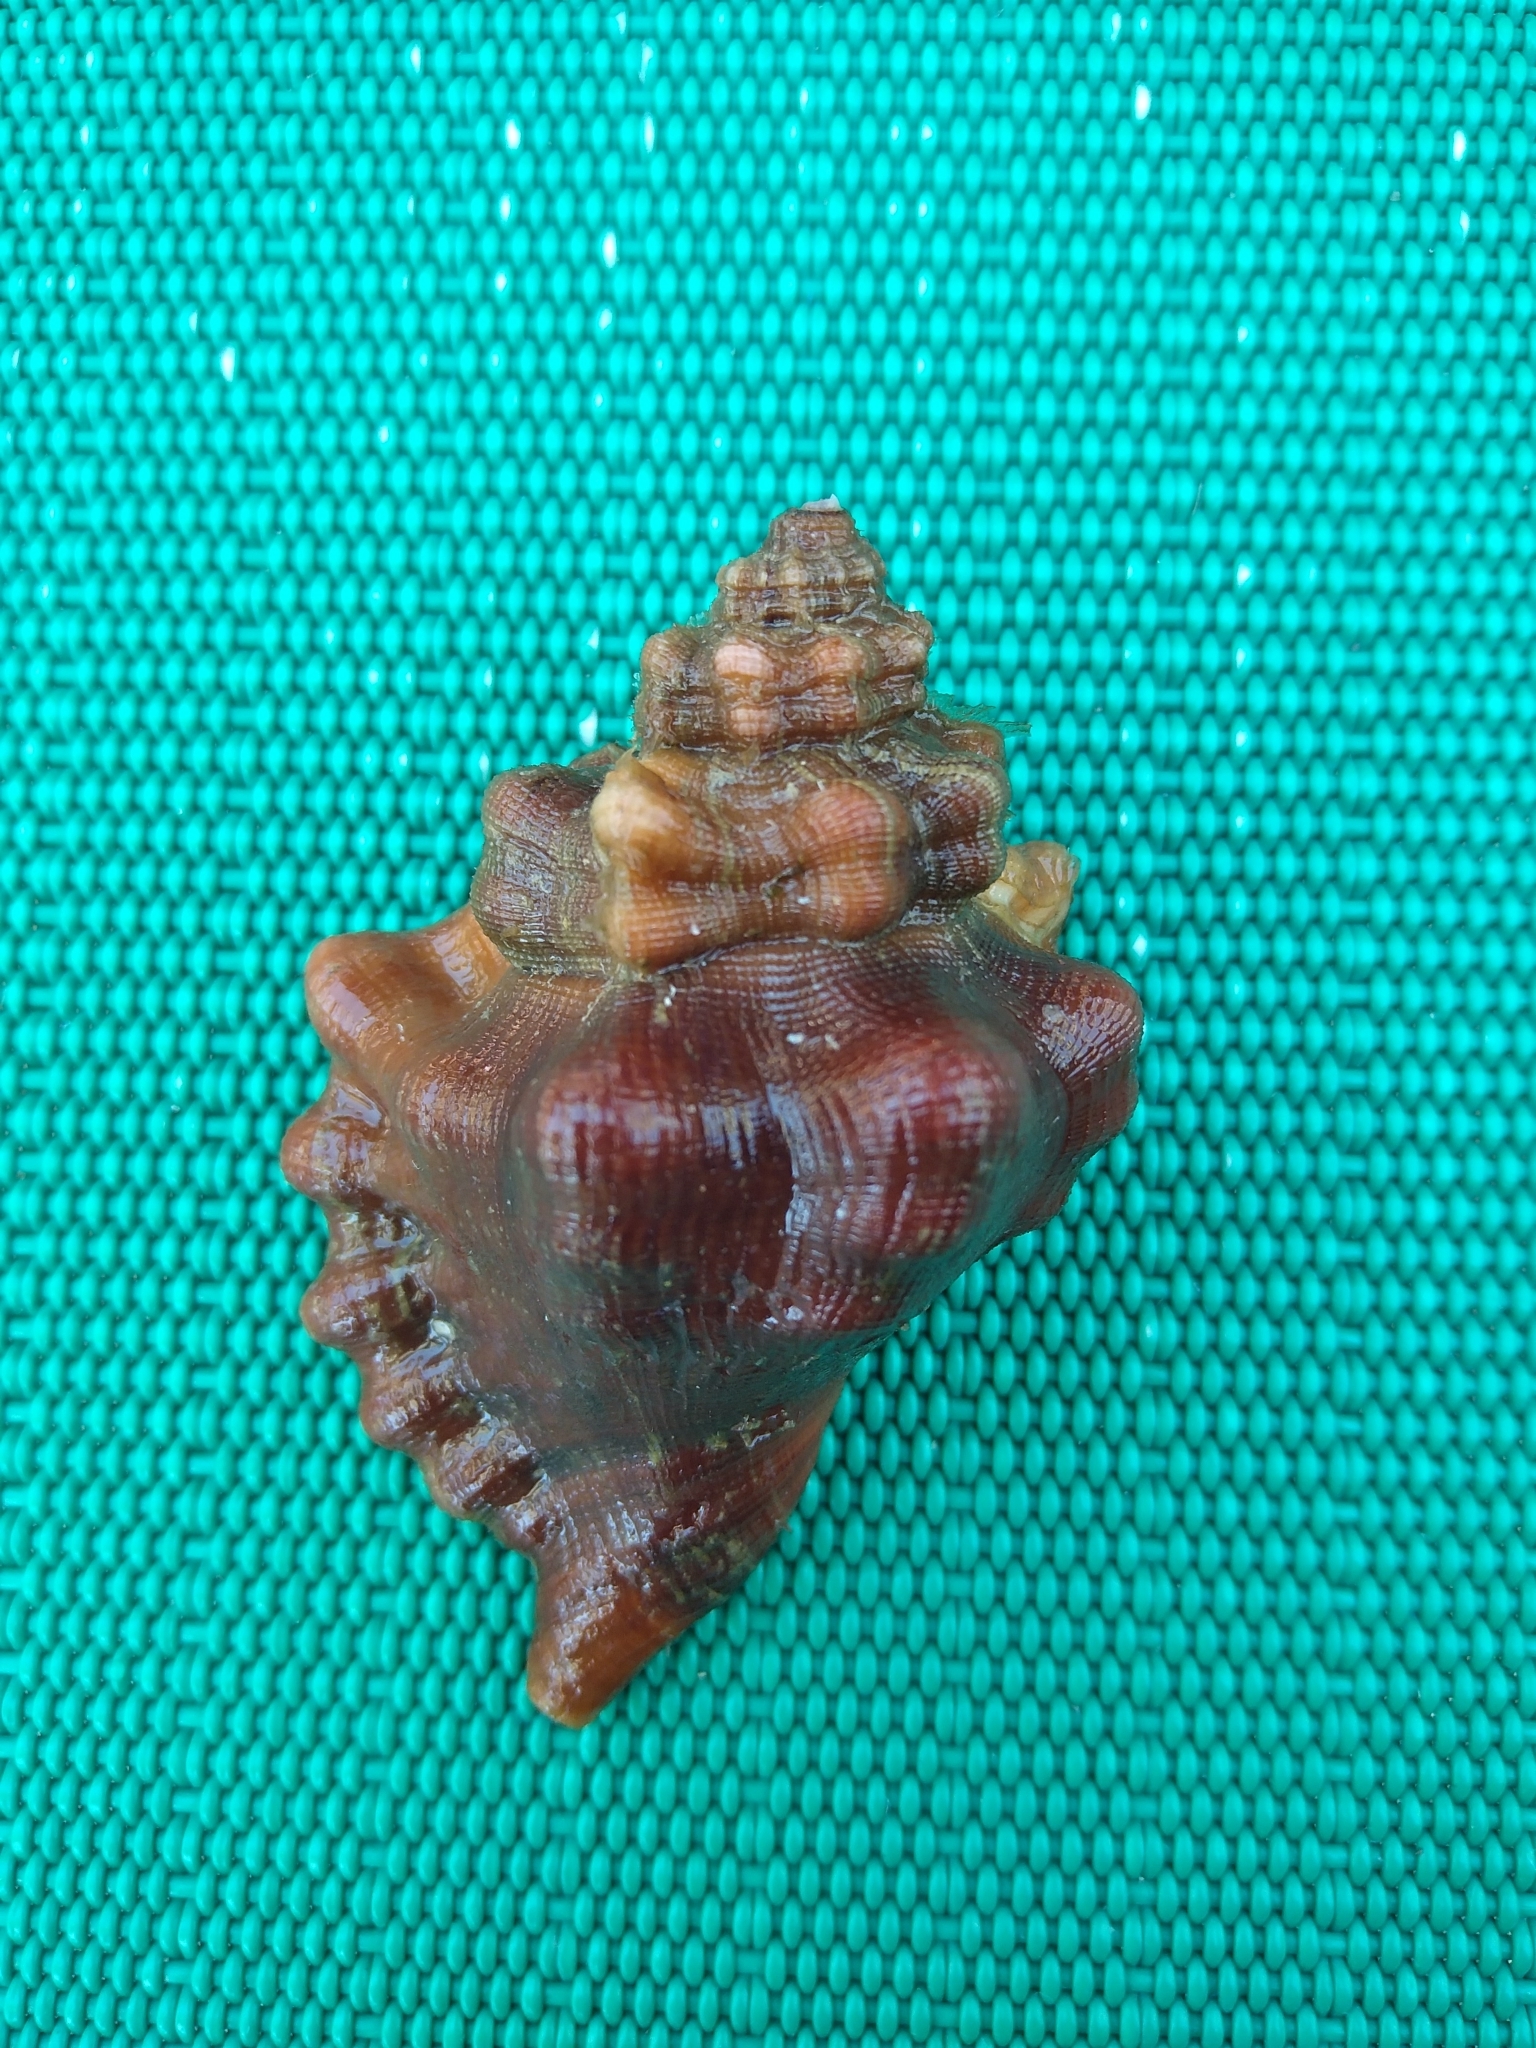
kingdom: Animalia
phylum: Mollusca
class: Gastropoda
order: Littorinimorpha
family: Cymatiidae
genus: Cabestana
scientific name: Cabestana cutacea
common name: Mediterranean bark triton
